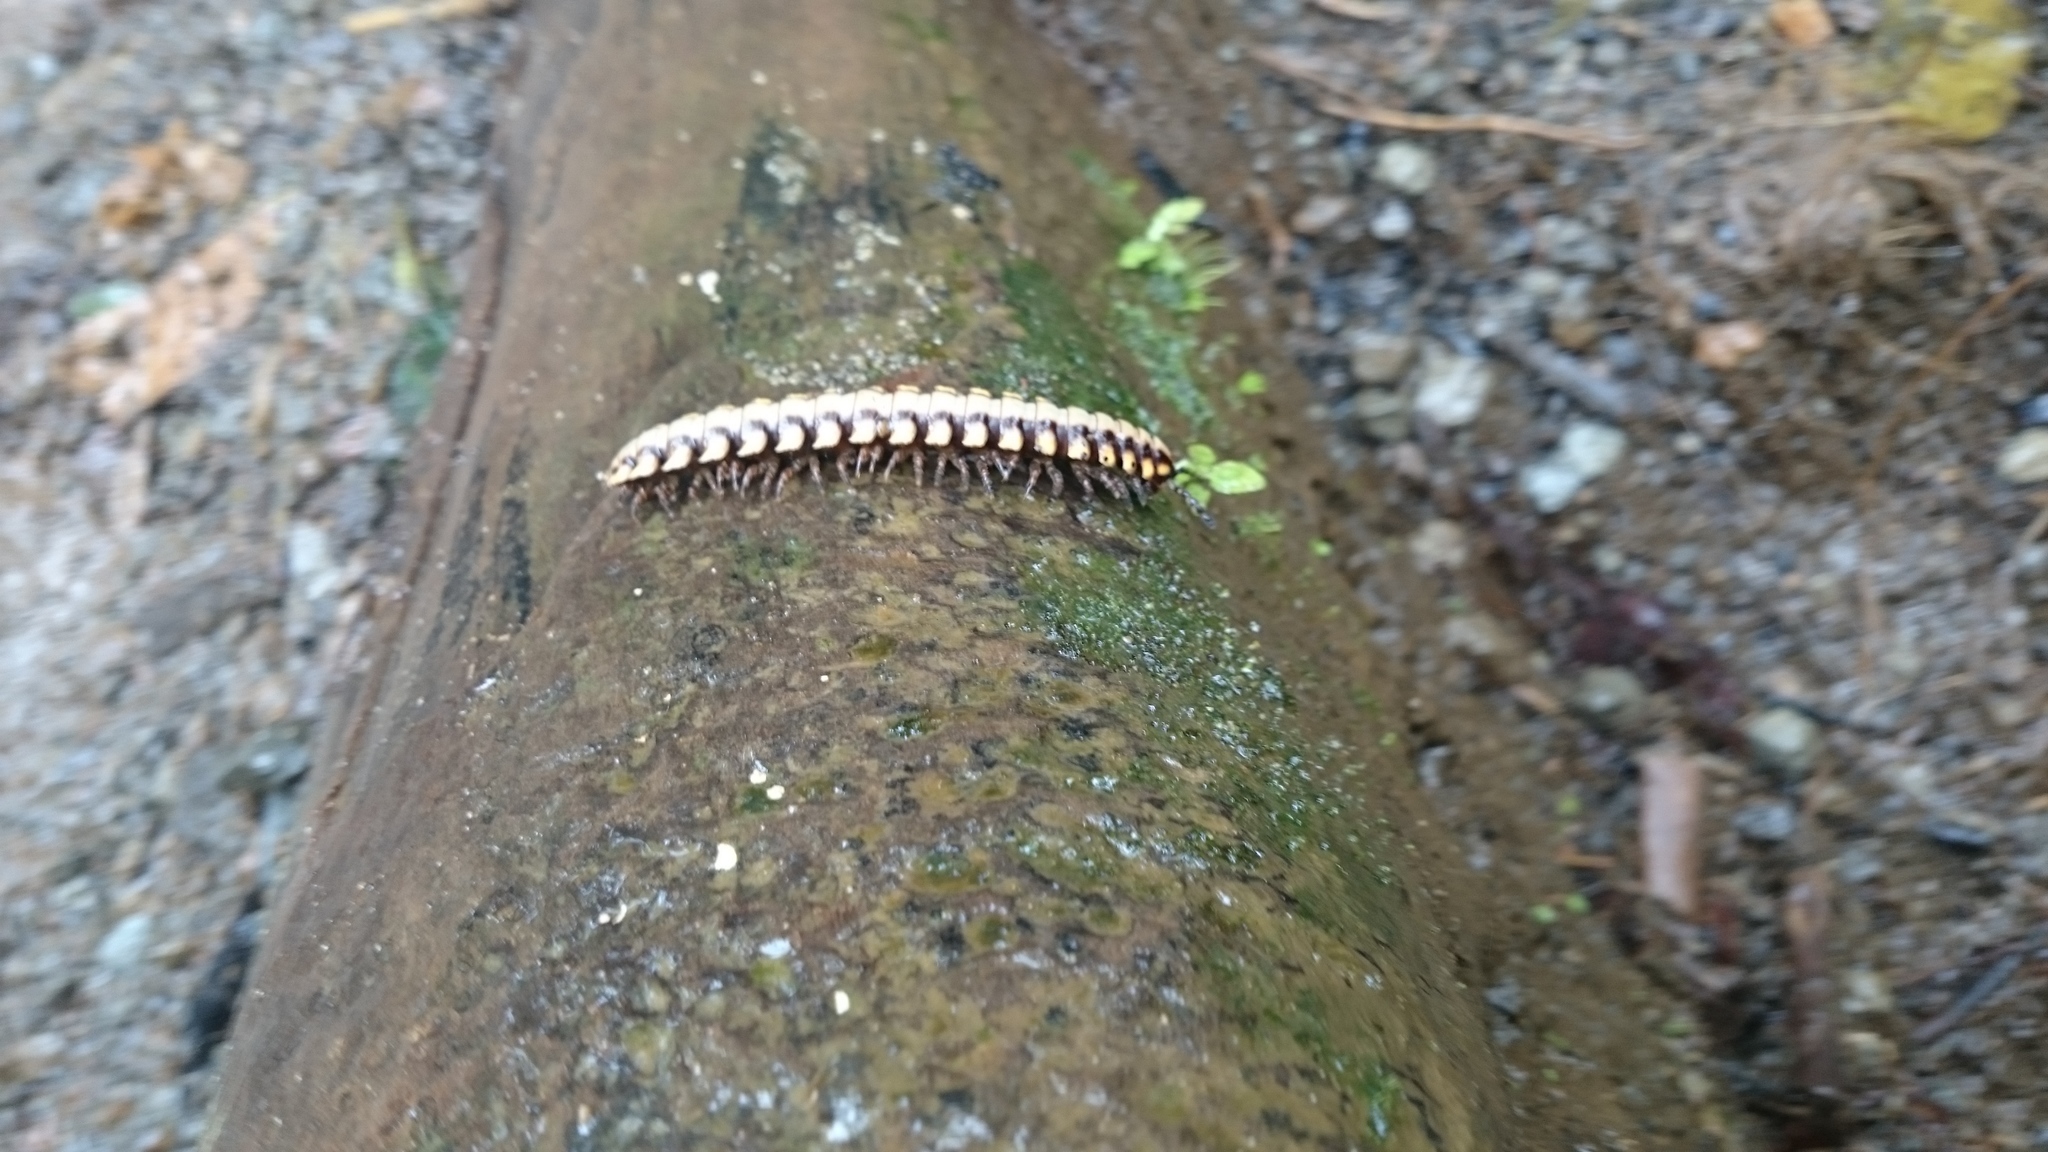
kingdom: Animalia
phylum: Arthropoda
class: Diplopoda
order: Polydesmida
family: Platyrhacidae
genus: Nyssodesmus
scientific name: Nyssodesmus python
